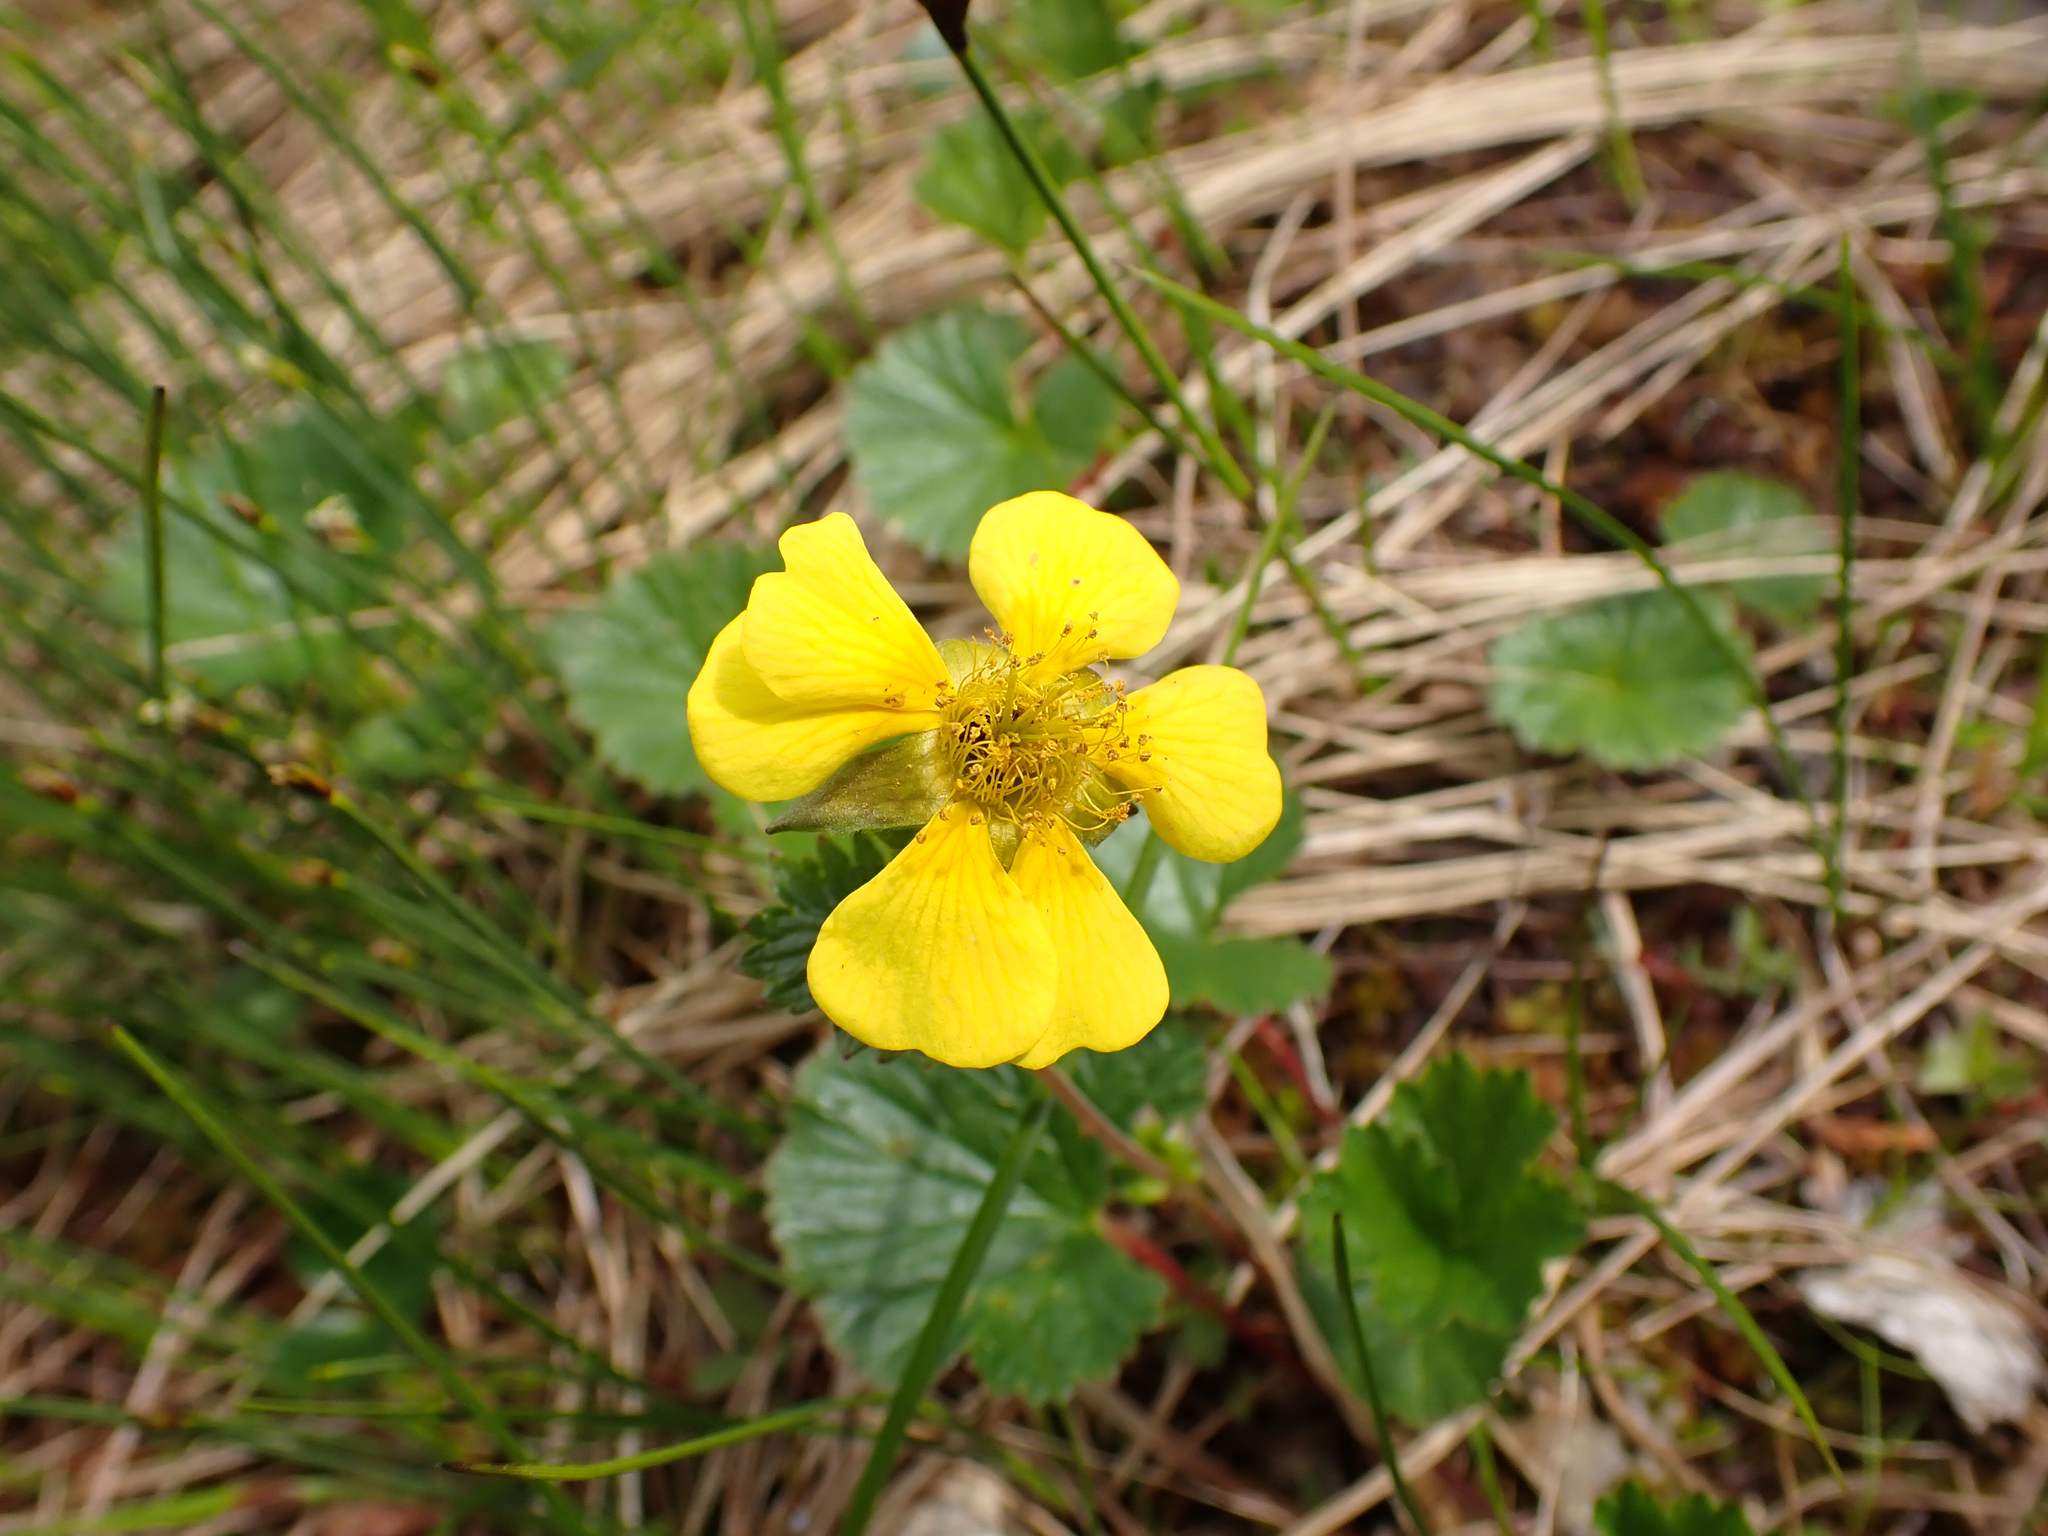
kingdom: Plantae
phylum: Tracheophyta
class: Magnoliopsida
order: Rosales
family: Rosaceae
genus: Geum
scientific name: Geum calthifolium
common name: Caltha-leaved avens
